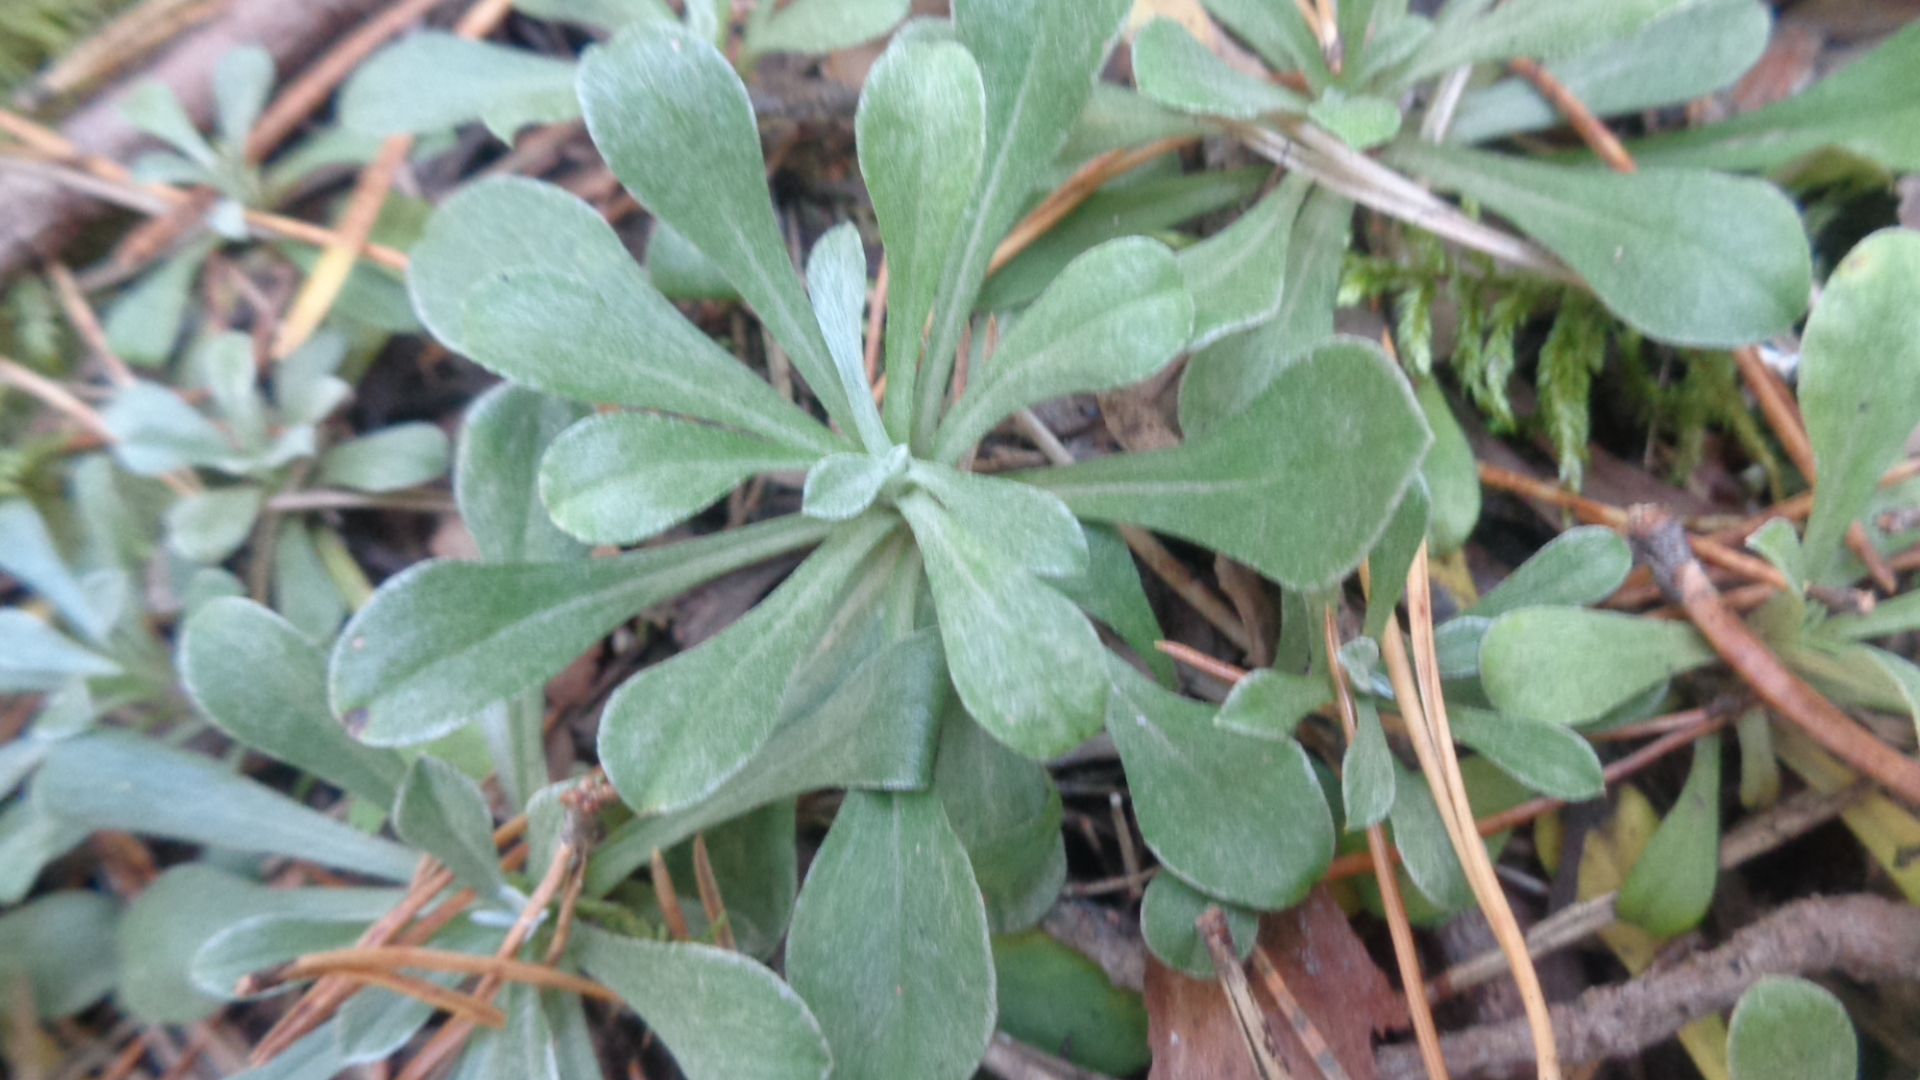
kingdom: Plantae
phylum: Tracheophyta
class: Magnoliopsida
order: Asterales
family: Asteraceae
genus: Antennaria
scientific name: Antennaria dioica
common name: Mountain everlasting
